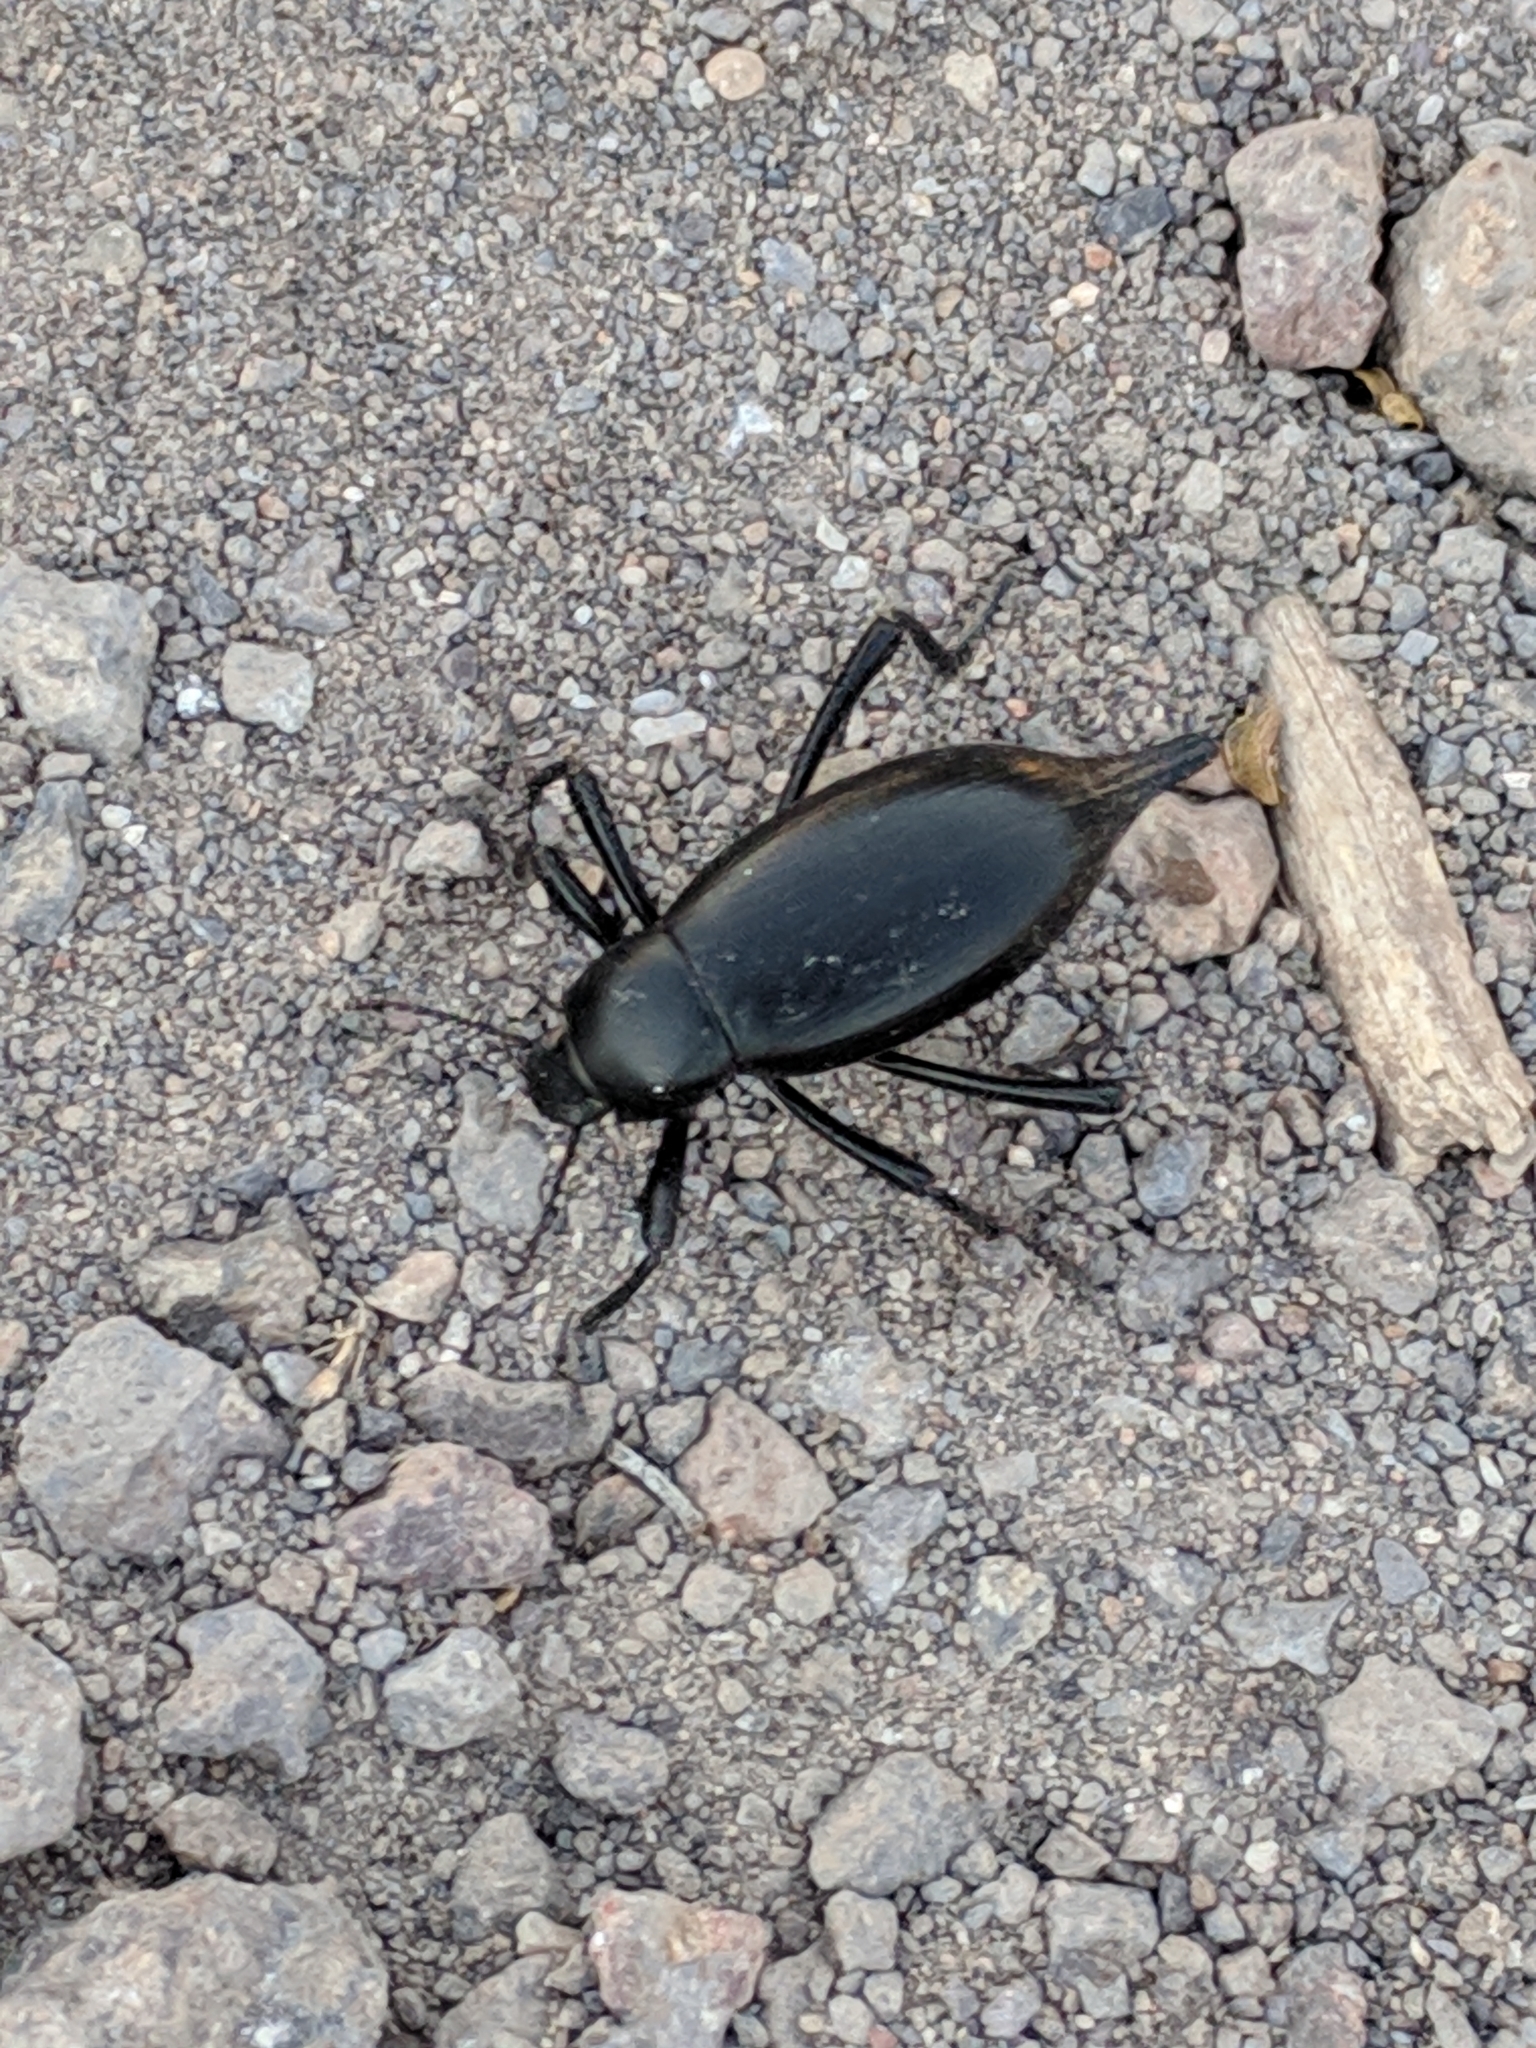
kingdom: Animalia
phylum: Arthropoda
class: Insecta
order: Coleoptera
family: Tenebrionidae
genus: Eleodes
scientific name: Eleodes spinipes
